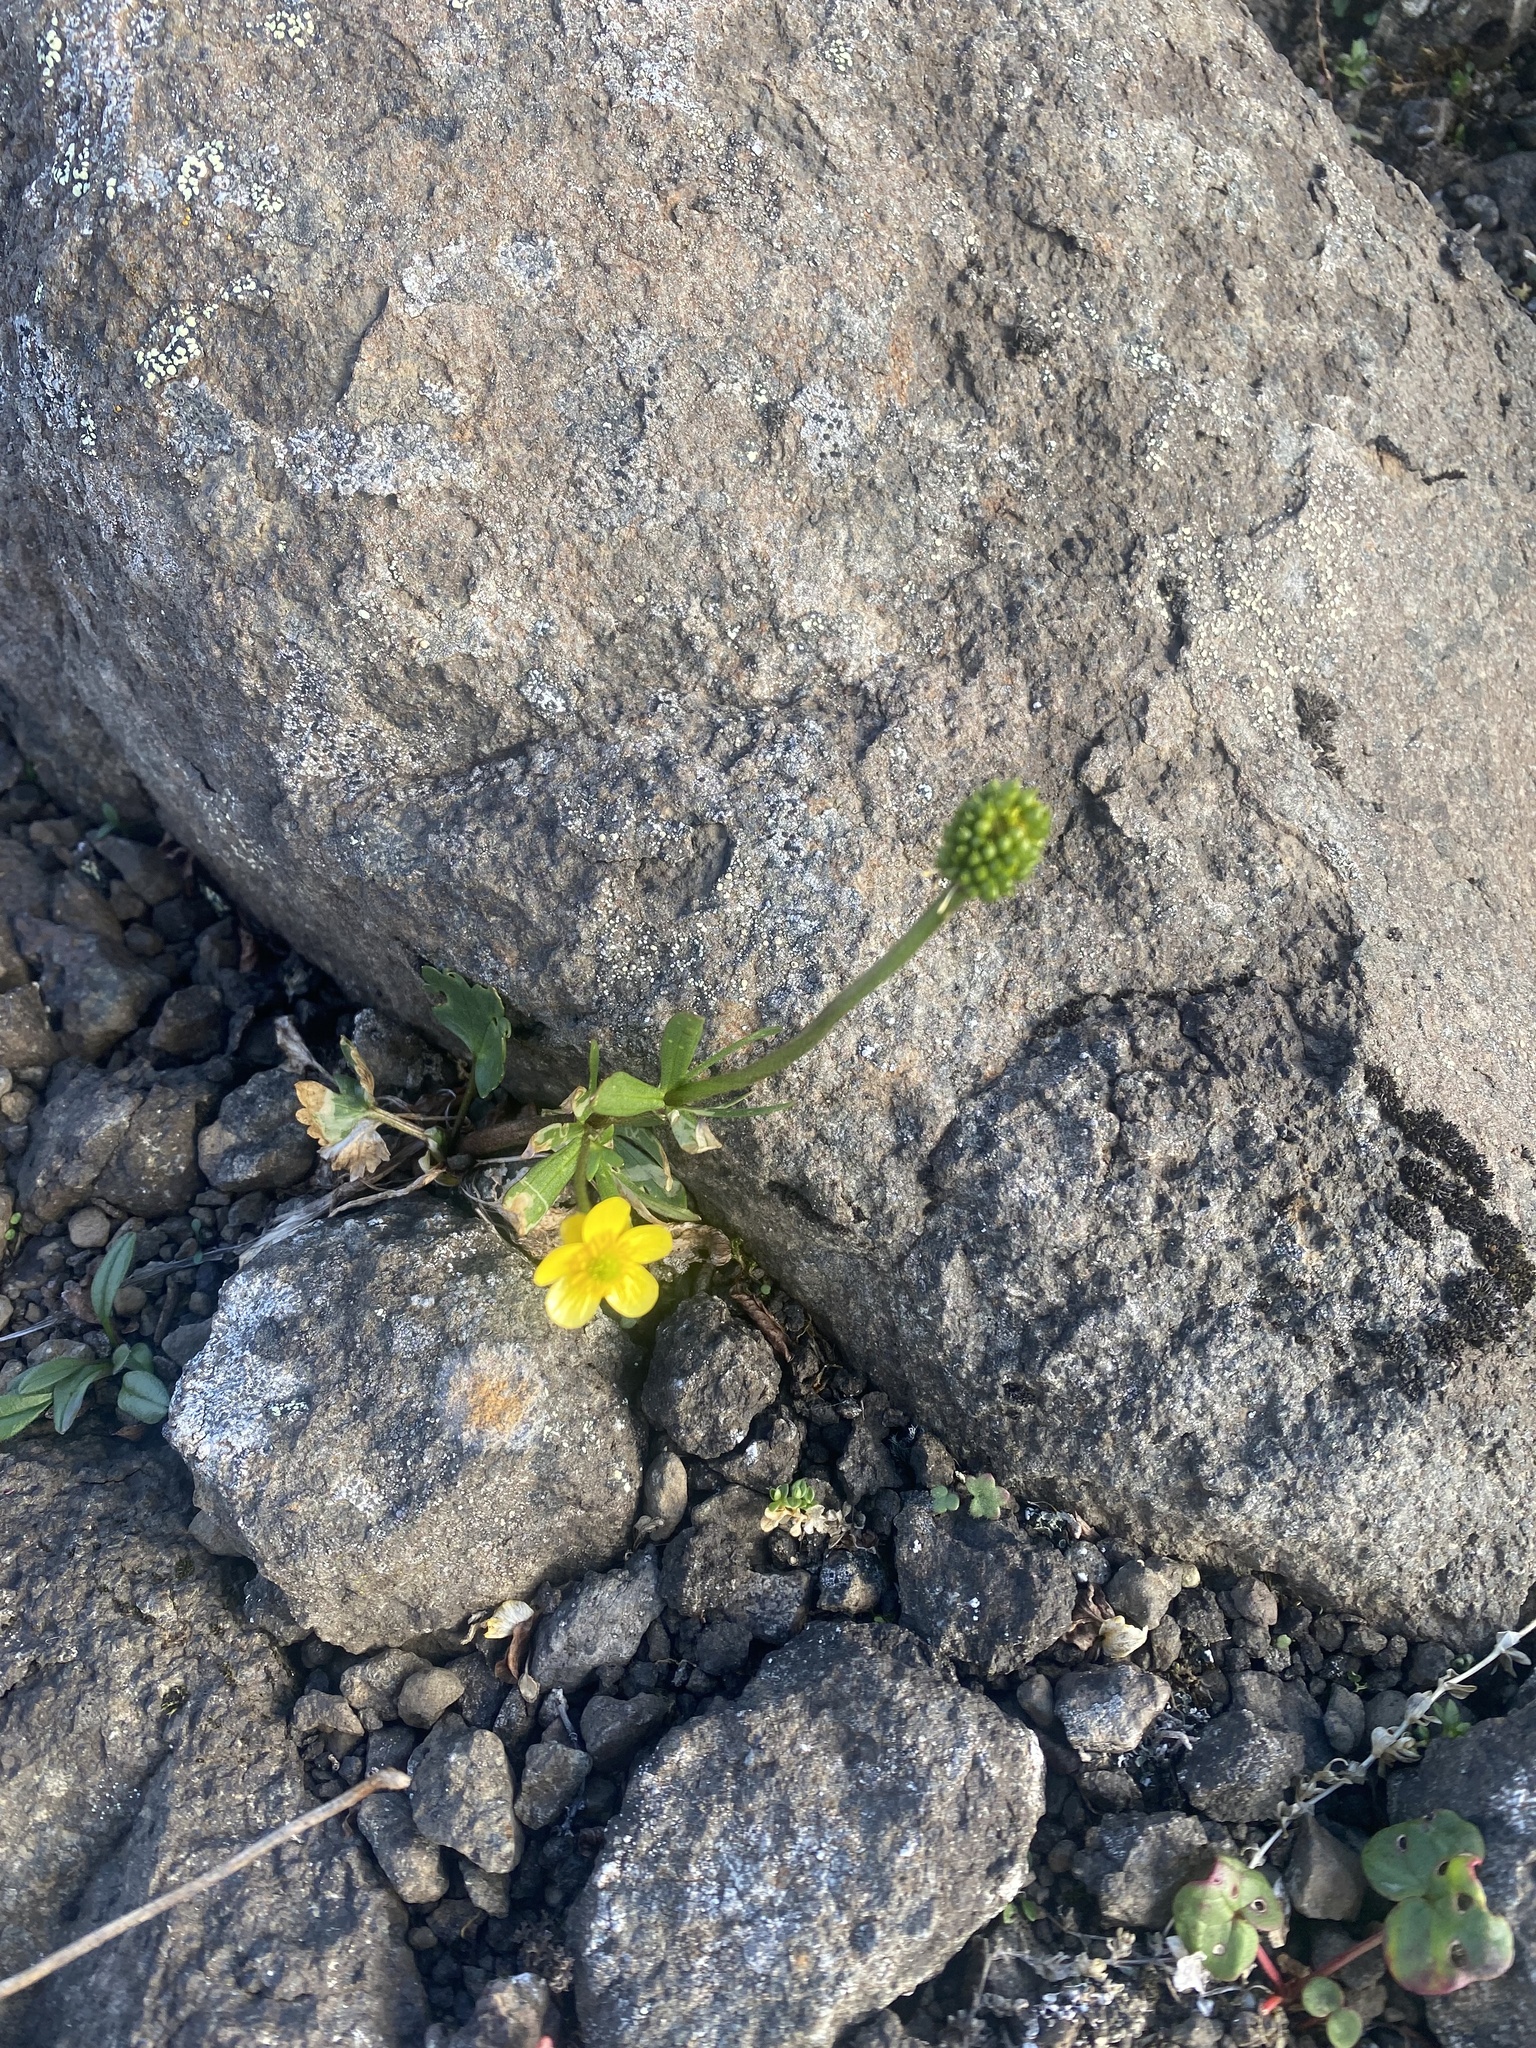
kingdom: Plantae
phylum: Tracheophyta
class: Magnoliopsida
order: Ranunculales
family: Ranunculaceae
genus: Ranunculus
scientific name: Ranunculus sulphureus
